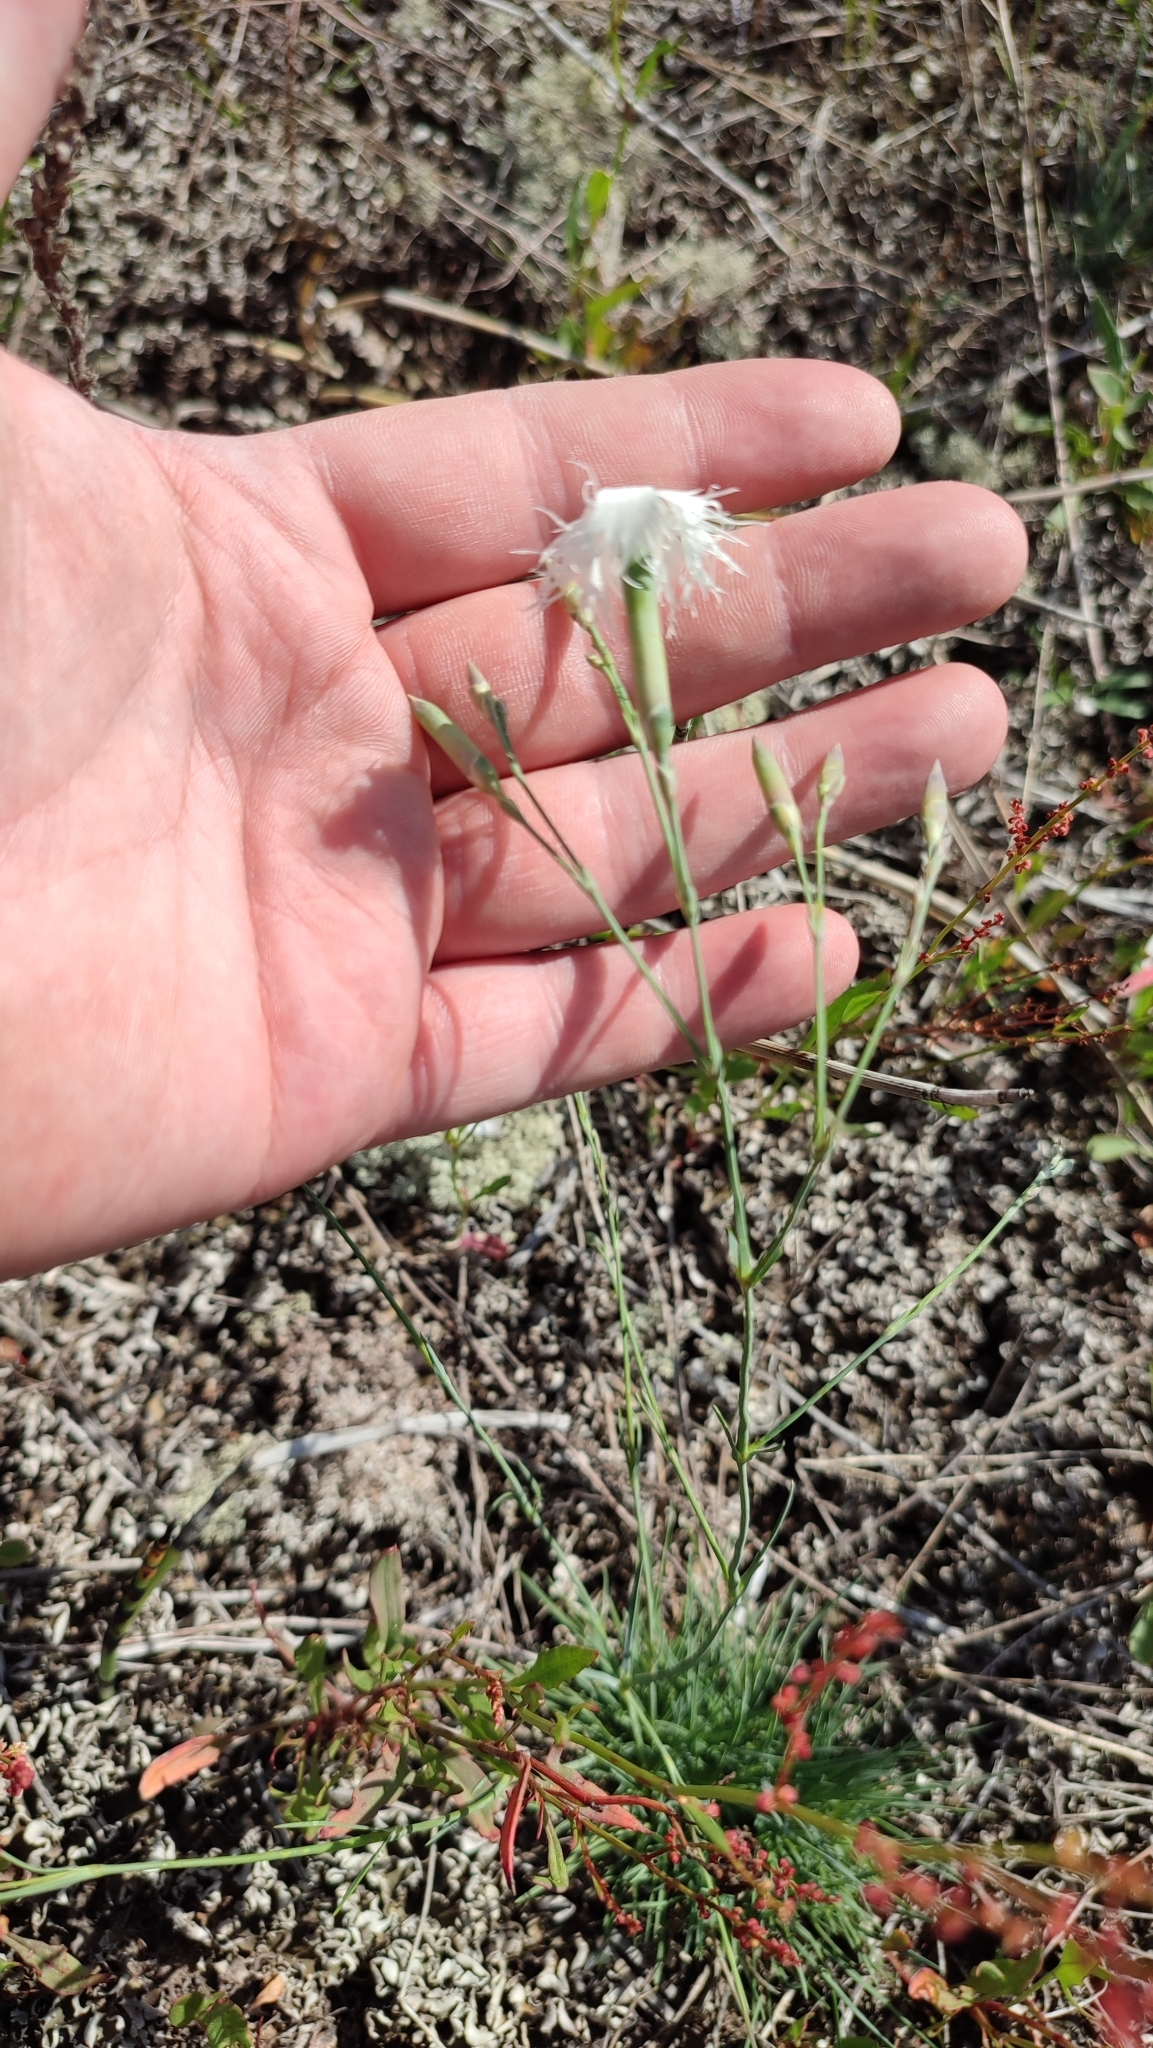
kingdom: Plantae
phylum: Tracheophyta
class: Magnoliopsida
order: Caryophyllales
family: Caryophyllaceae
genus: Dianthus
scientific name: Dianthus arenarius
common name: Stone pink
